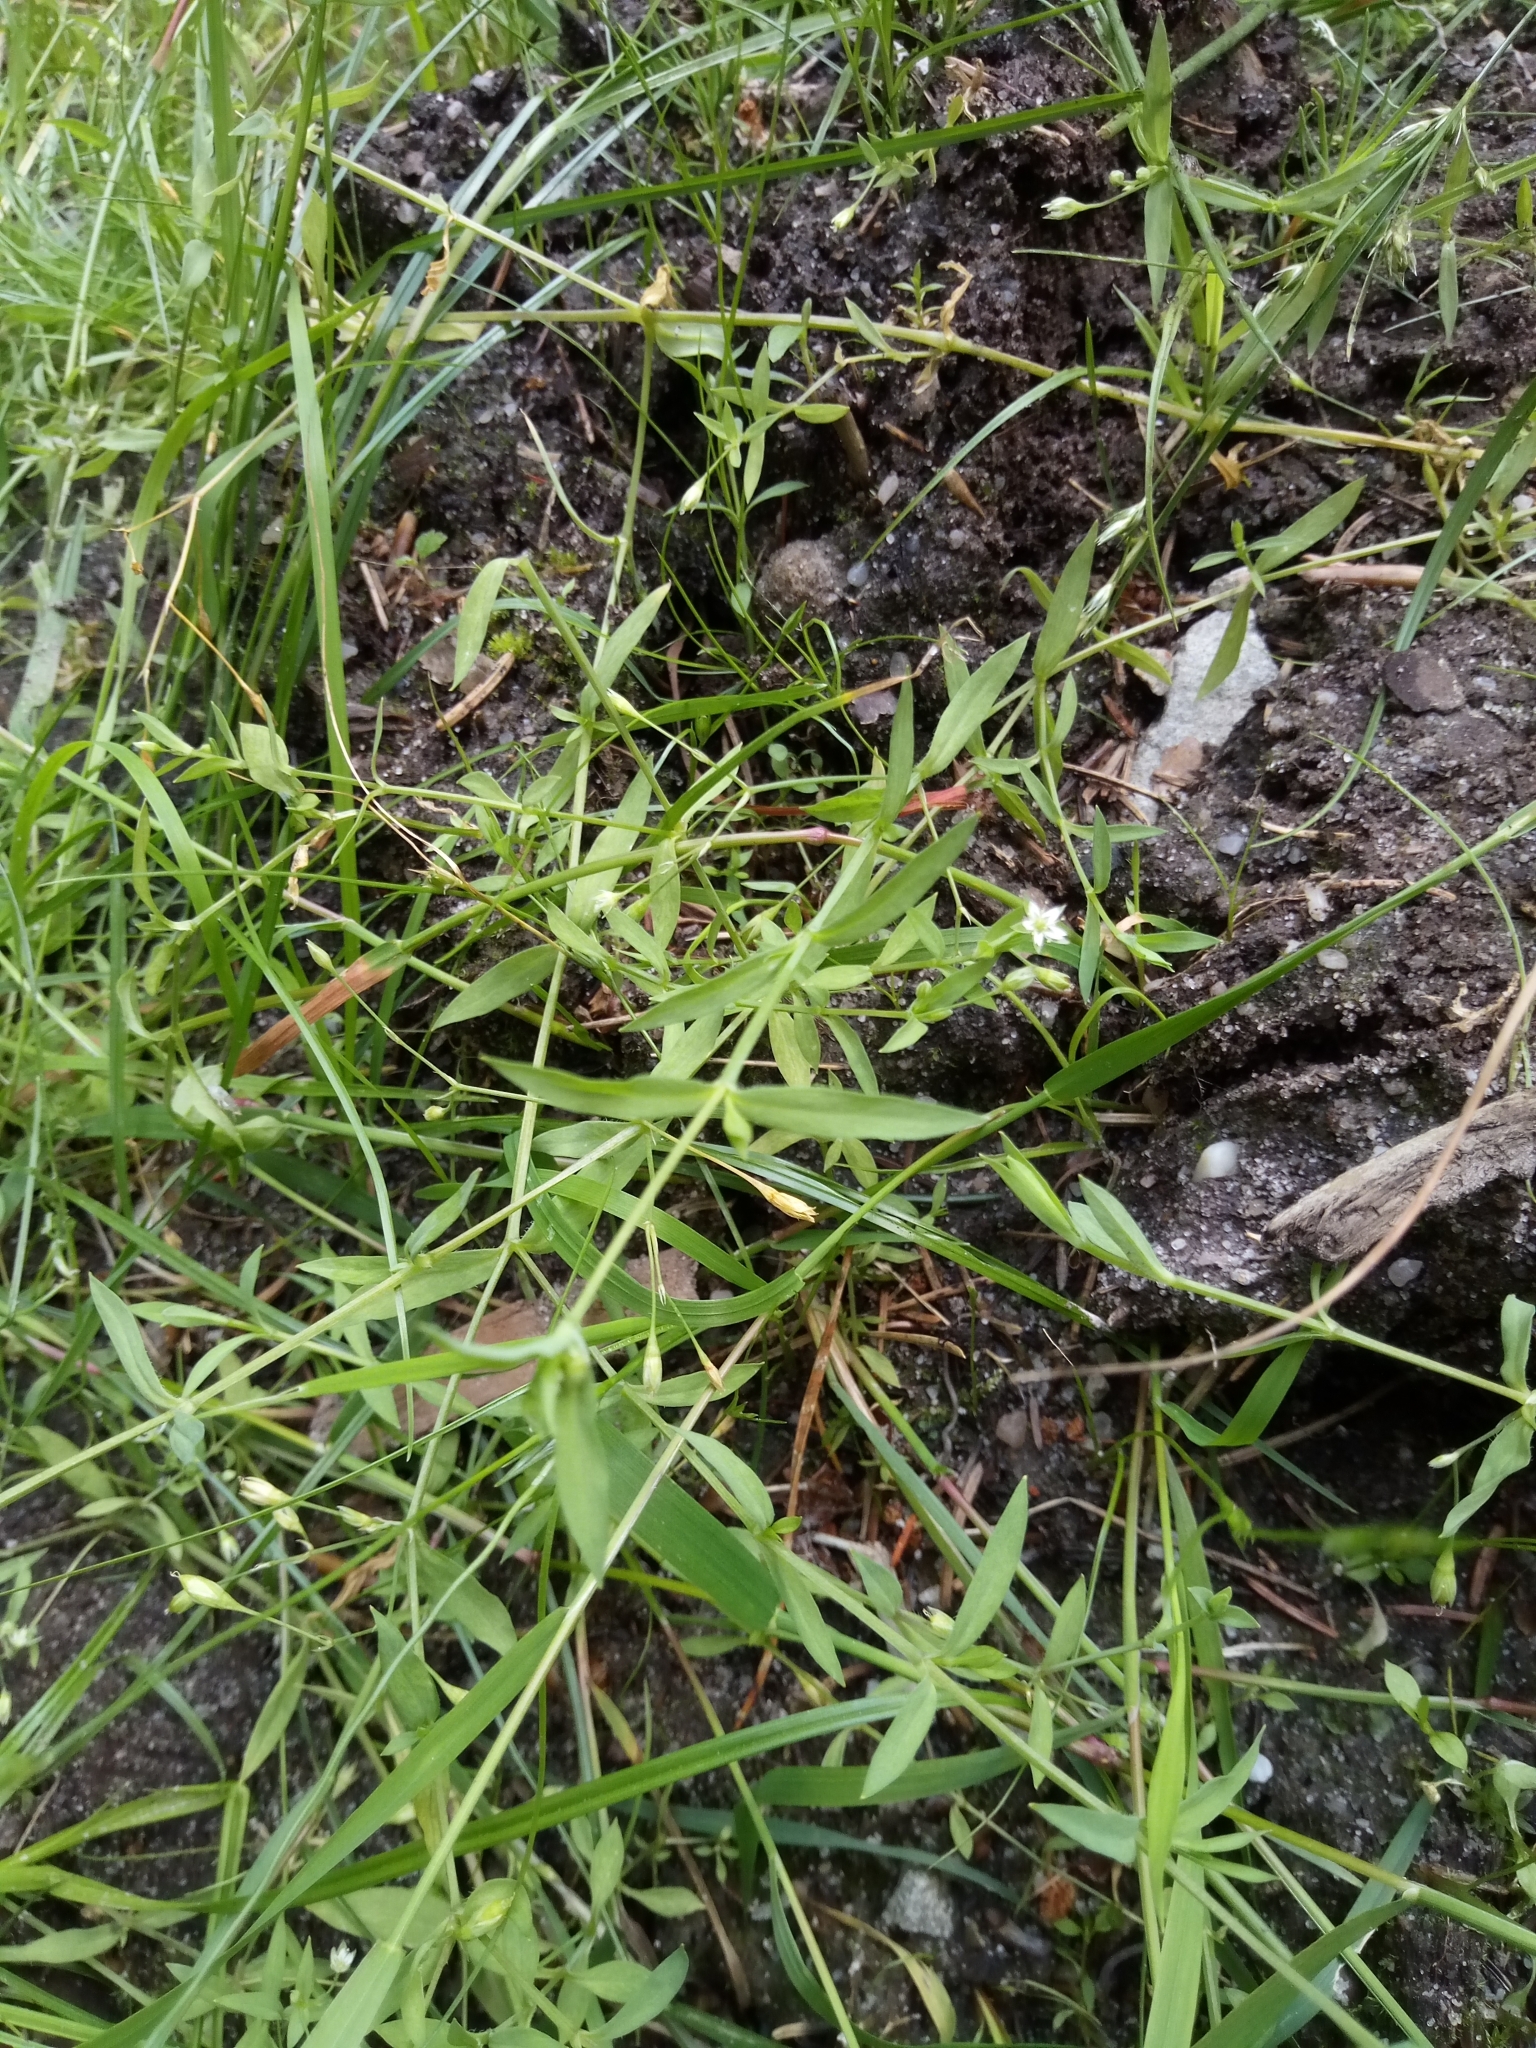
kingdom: Plantae
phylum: Tracheophyta
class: Magnoliopsida
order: Caryophyllales
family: Caryophyllaceae
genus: Stellaria
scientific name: Stellaria alsine
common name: Bog stitchwort
